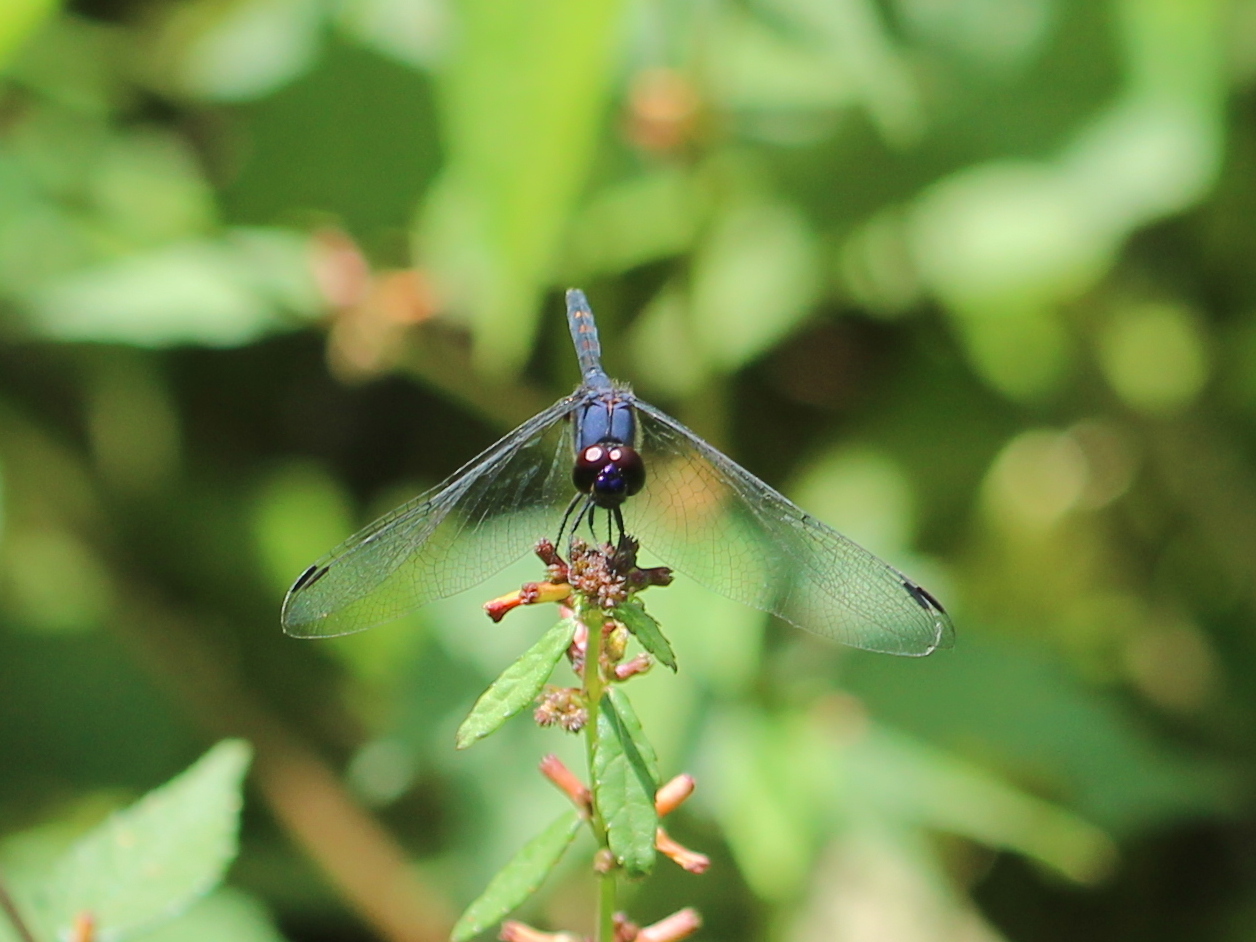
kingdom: Animalia
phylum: Arthropoda
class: Insecta
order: Odonata
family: Libellulidae
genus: Trithemis
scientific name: Trithemis festiva
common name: Indigo dropwing
